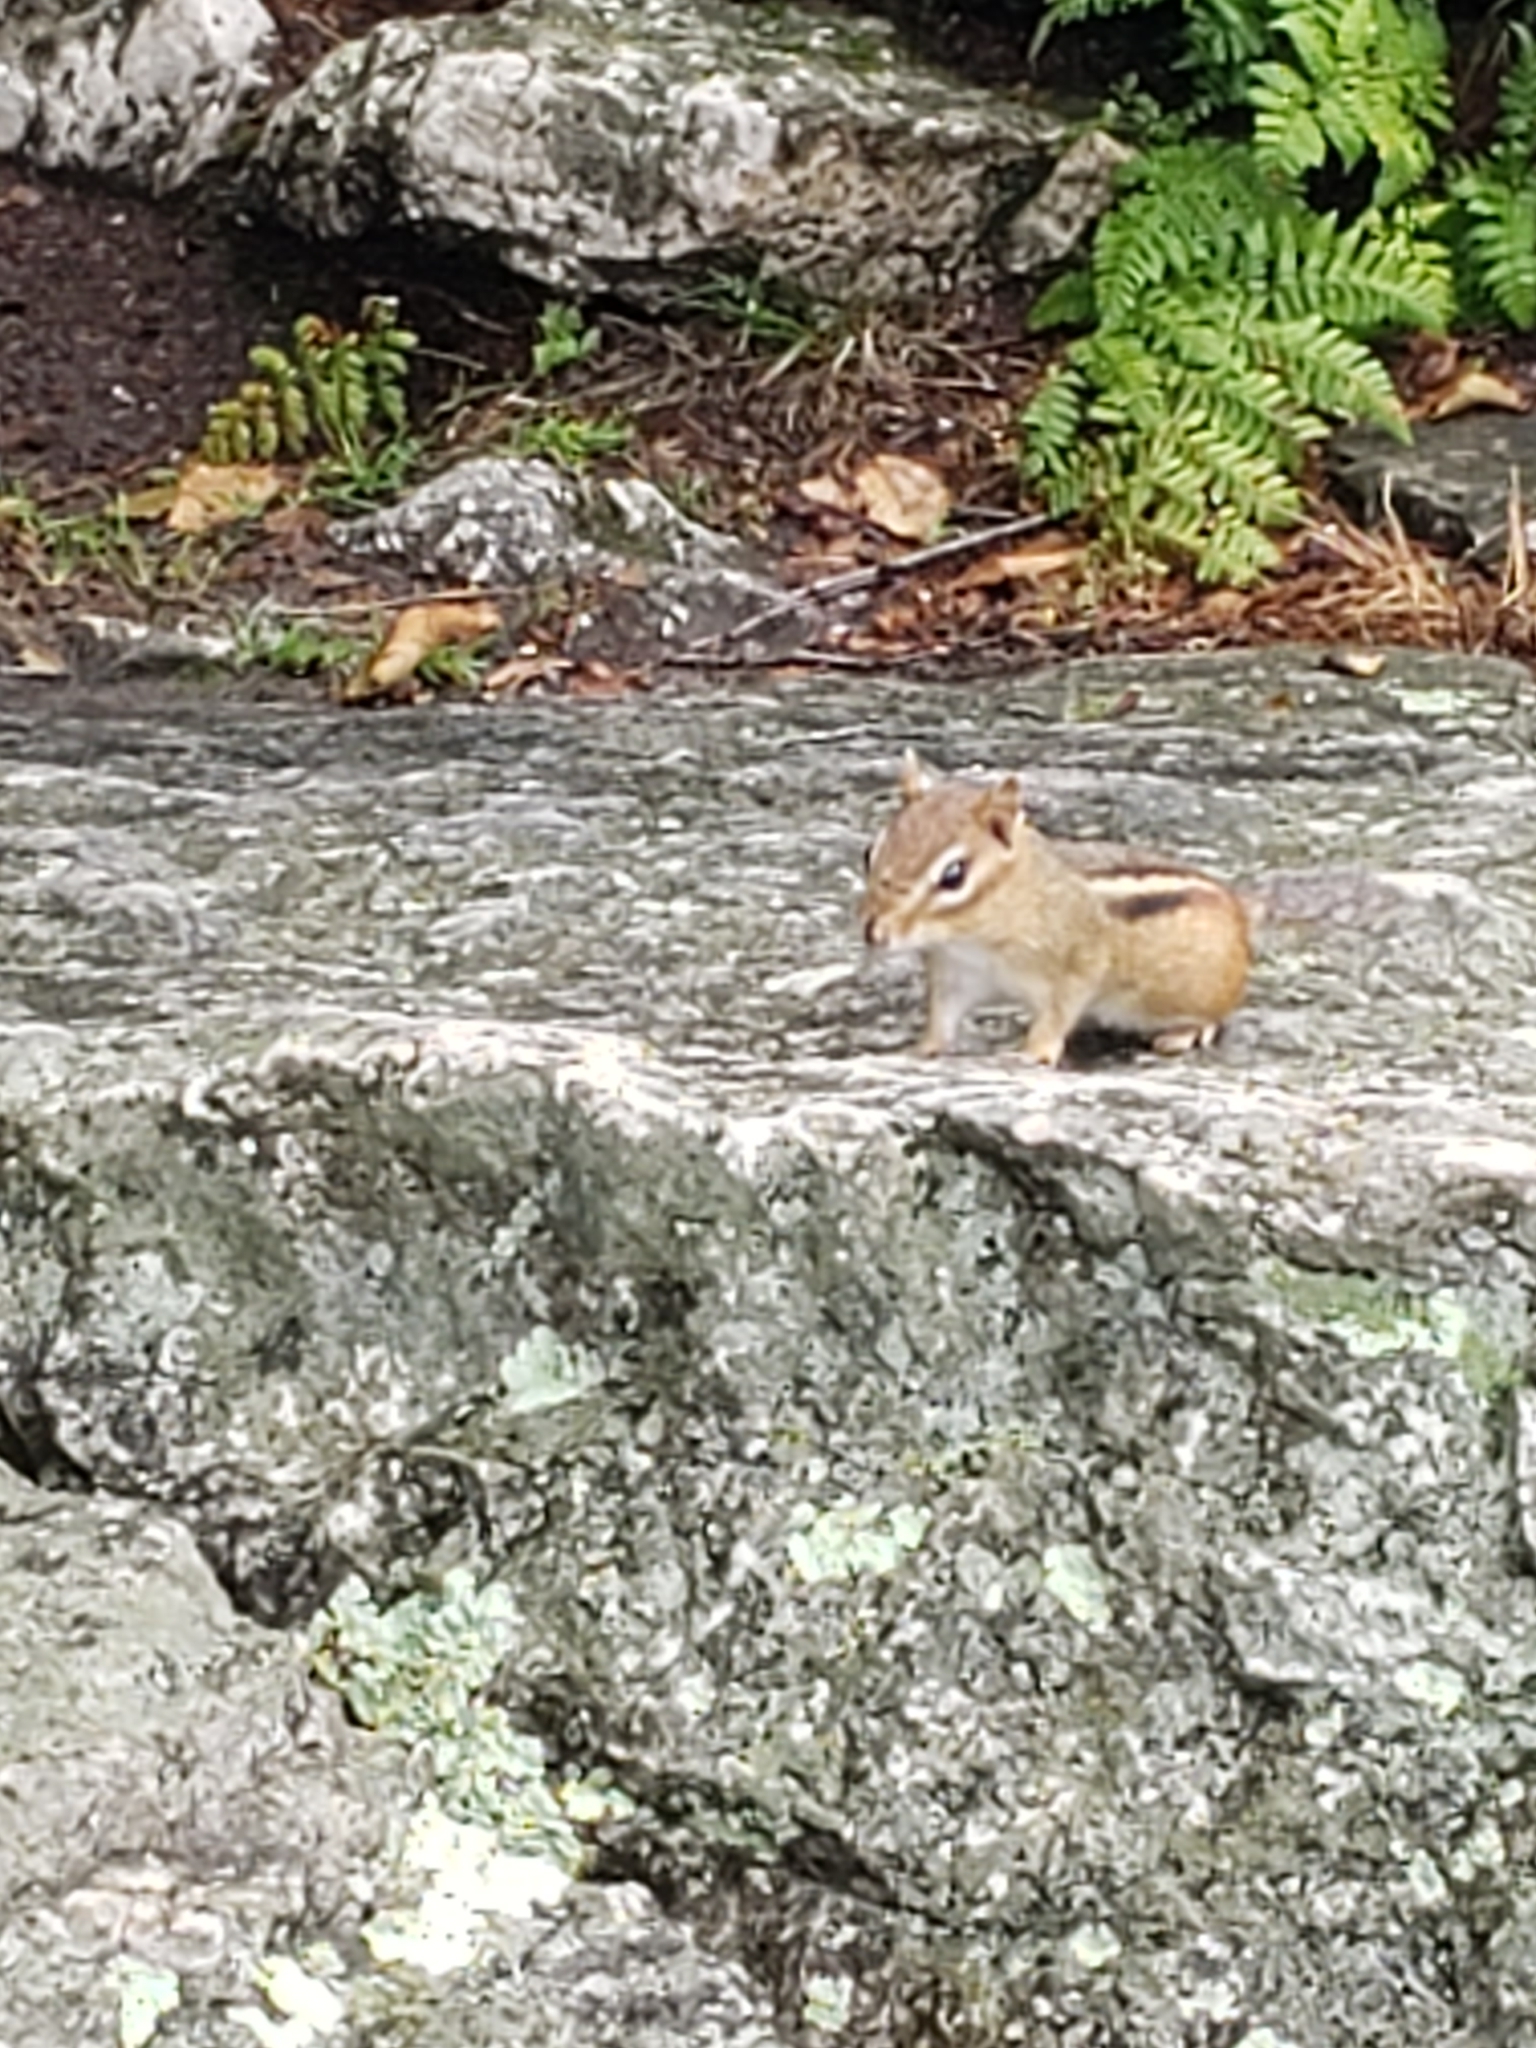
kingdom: Animalia
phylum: Chordata
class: Mammalia
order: Rodentia
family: Sciuridae
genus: Tamias
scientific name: Tamias striatus
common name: Eastern chipmunk
